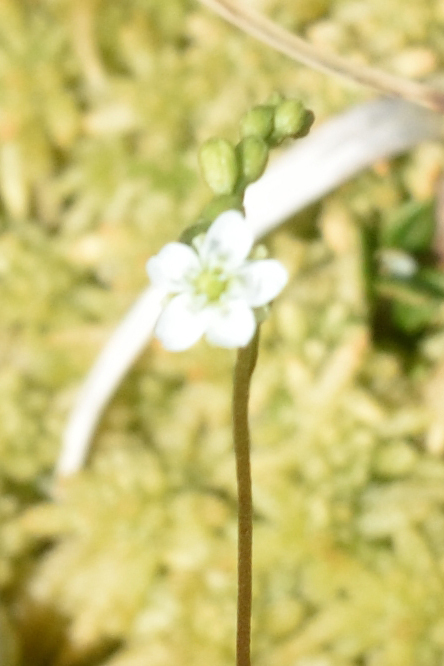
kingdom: Plantae
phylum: Tracheophyta
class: Magnoliopsida
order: Caryophyllales
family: Droseraceae
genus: Drosera
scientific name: Drosera rotundifolia
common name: Round-leaved sundew
